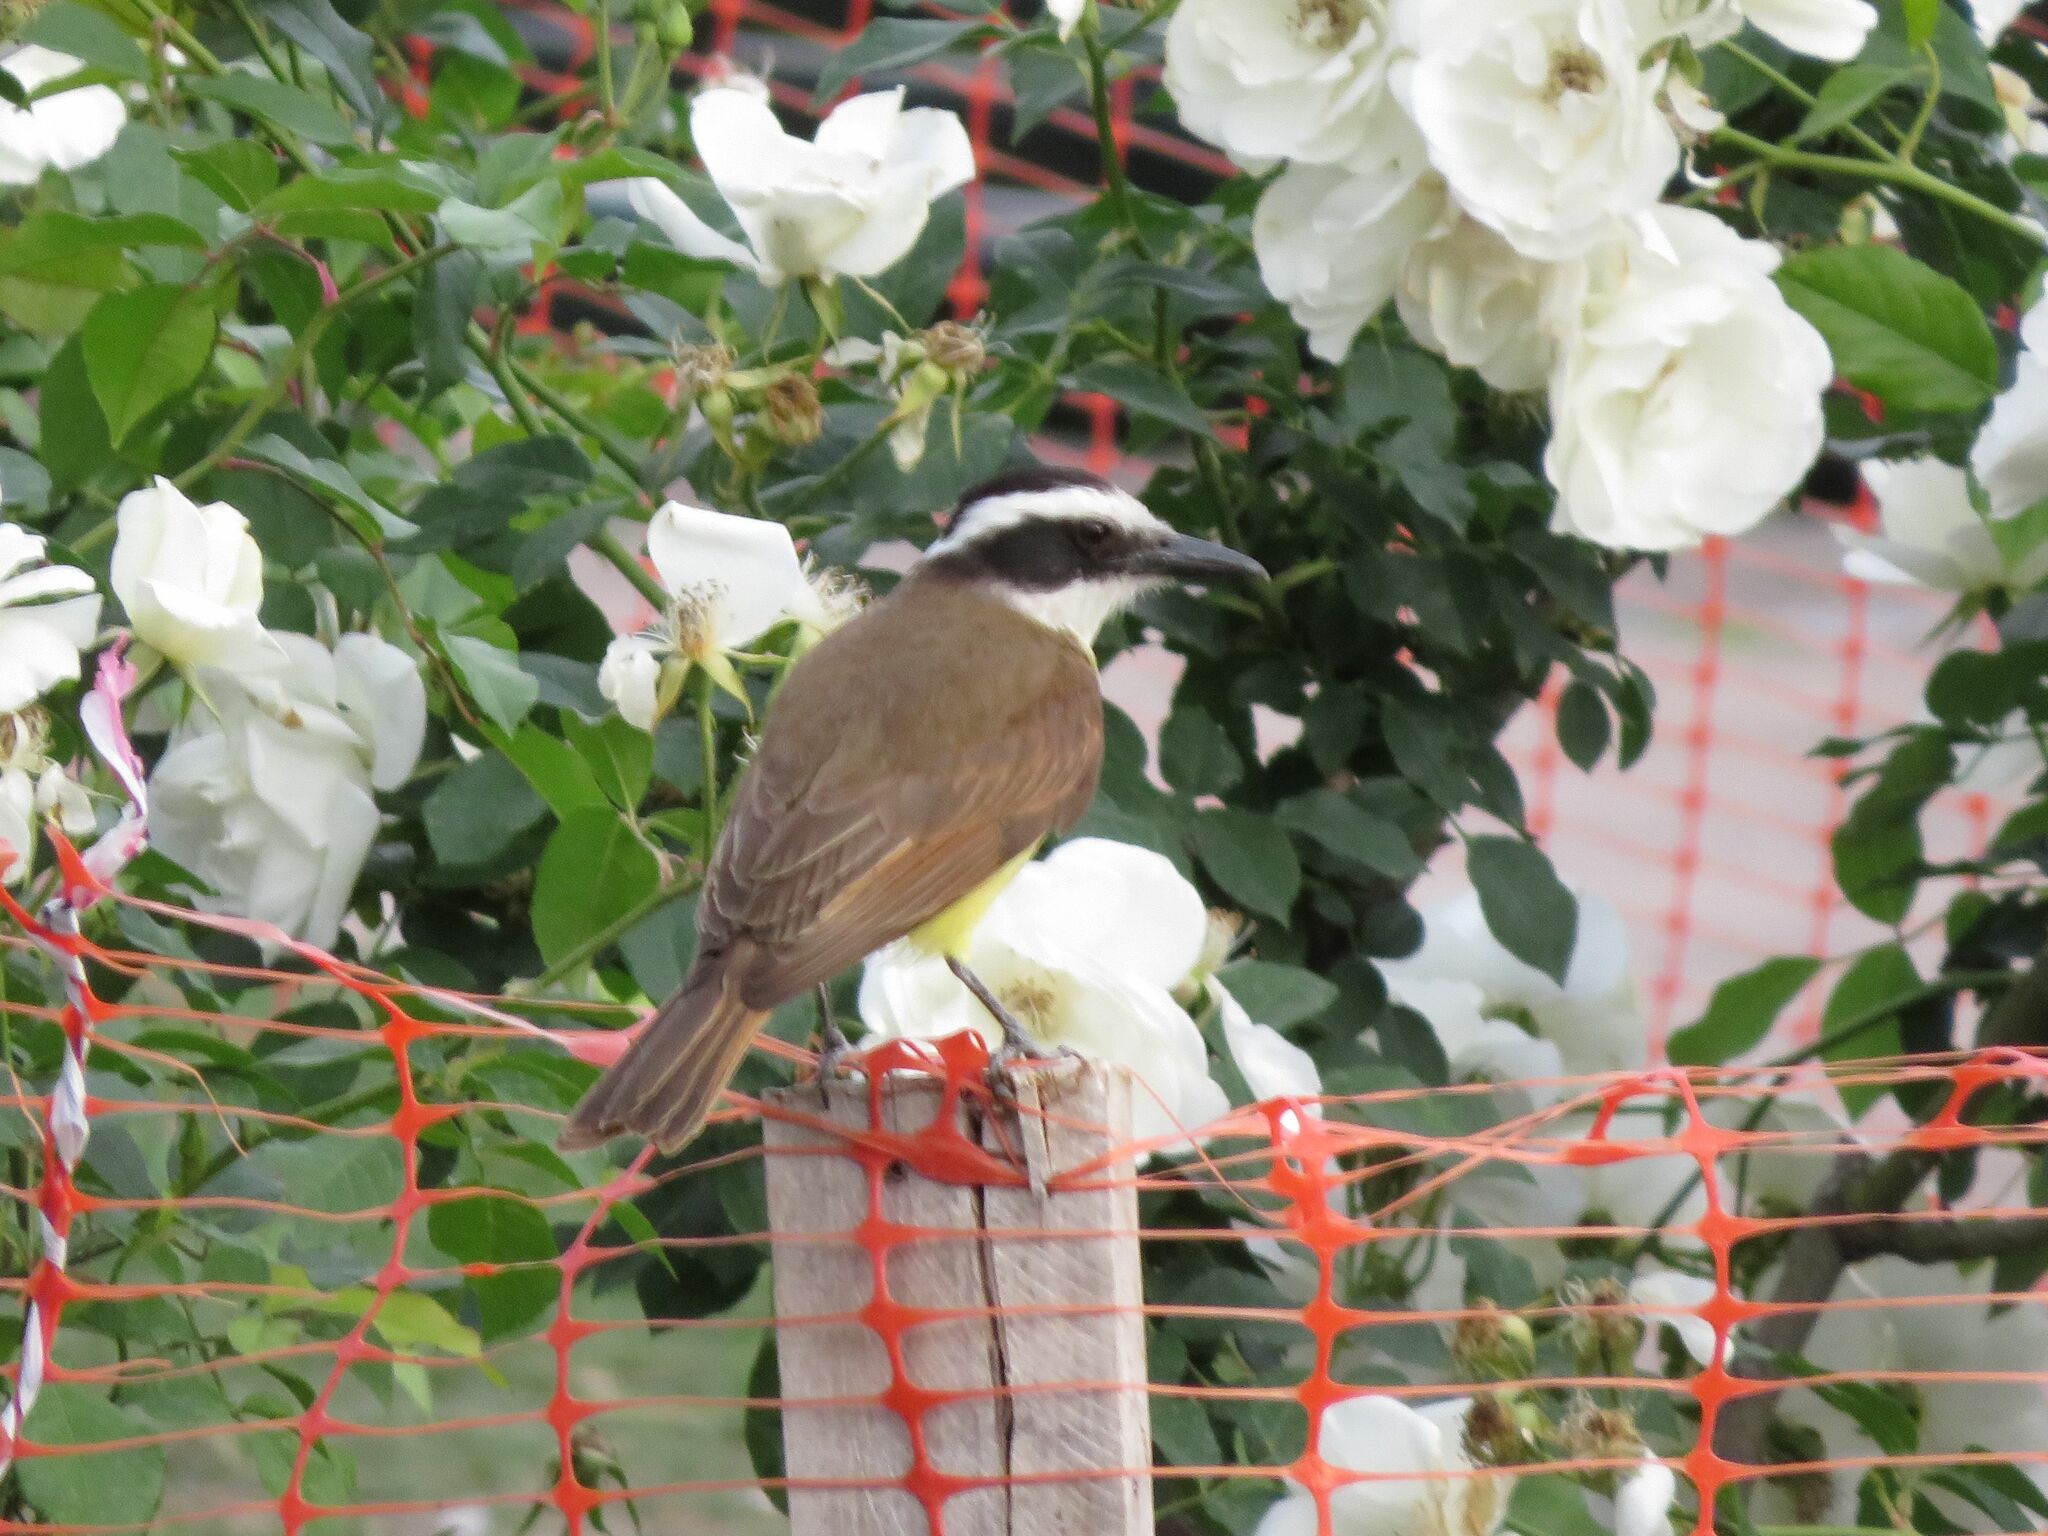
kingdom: Animalia
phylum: Chordata
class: Aves
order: Passeriformes
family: Tyrannidae
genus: Pitangus
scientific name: Pitangus sulphuratus
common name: Great kiskadee
